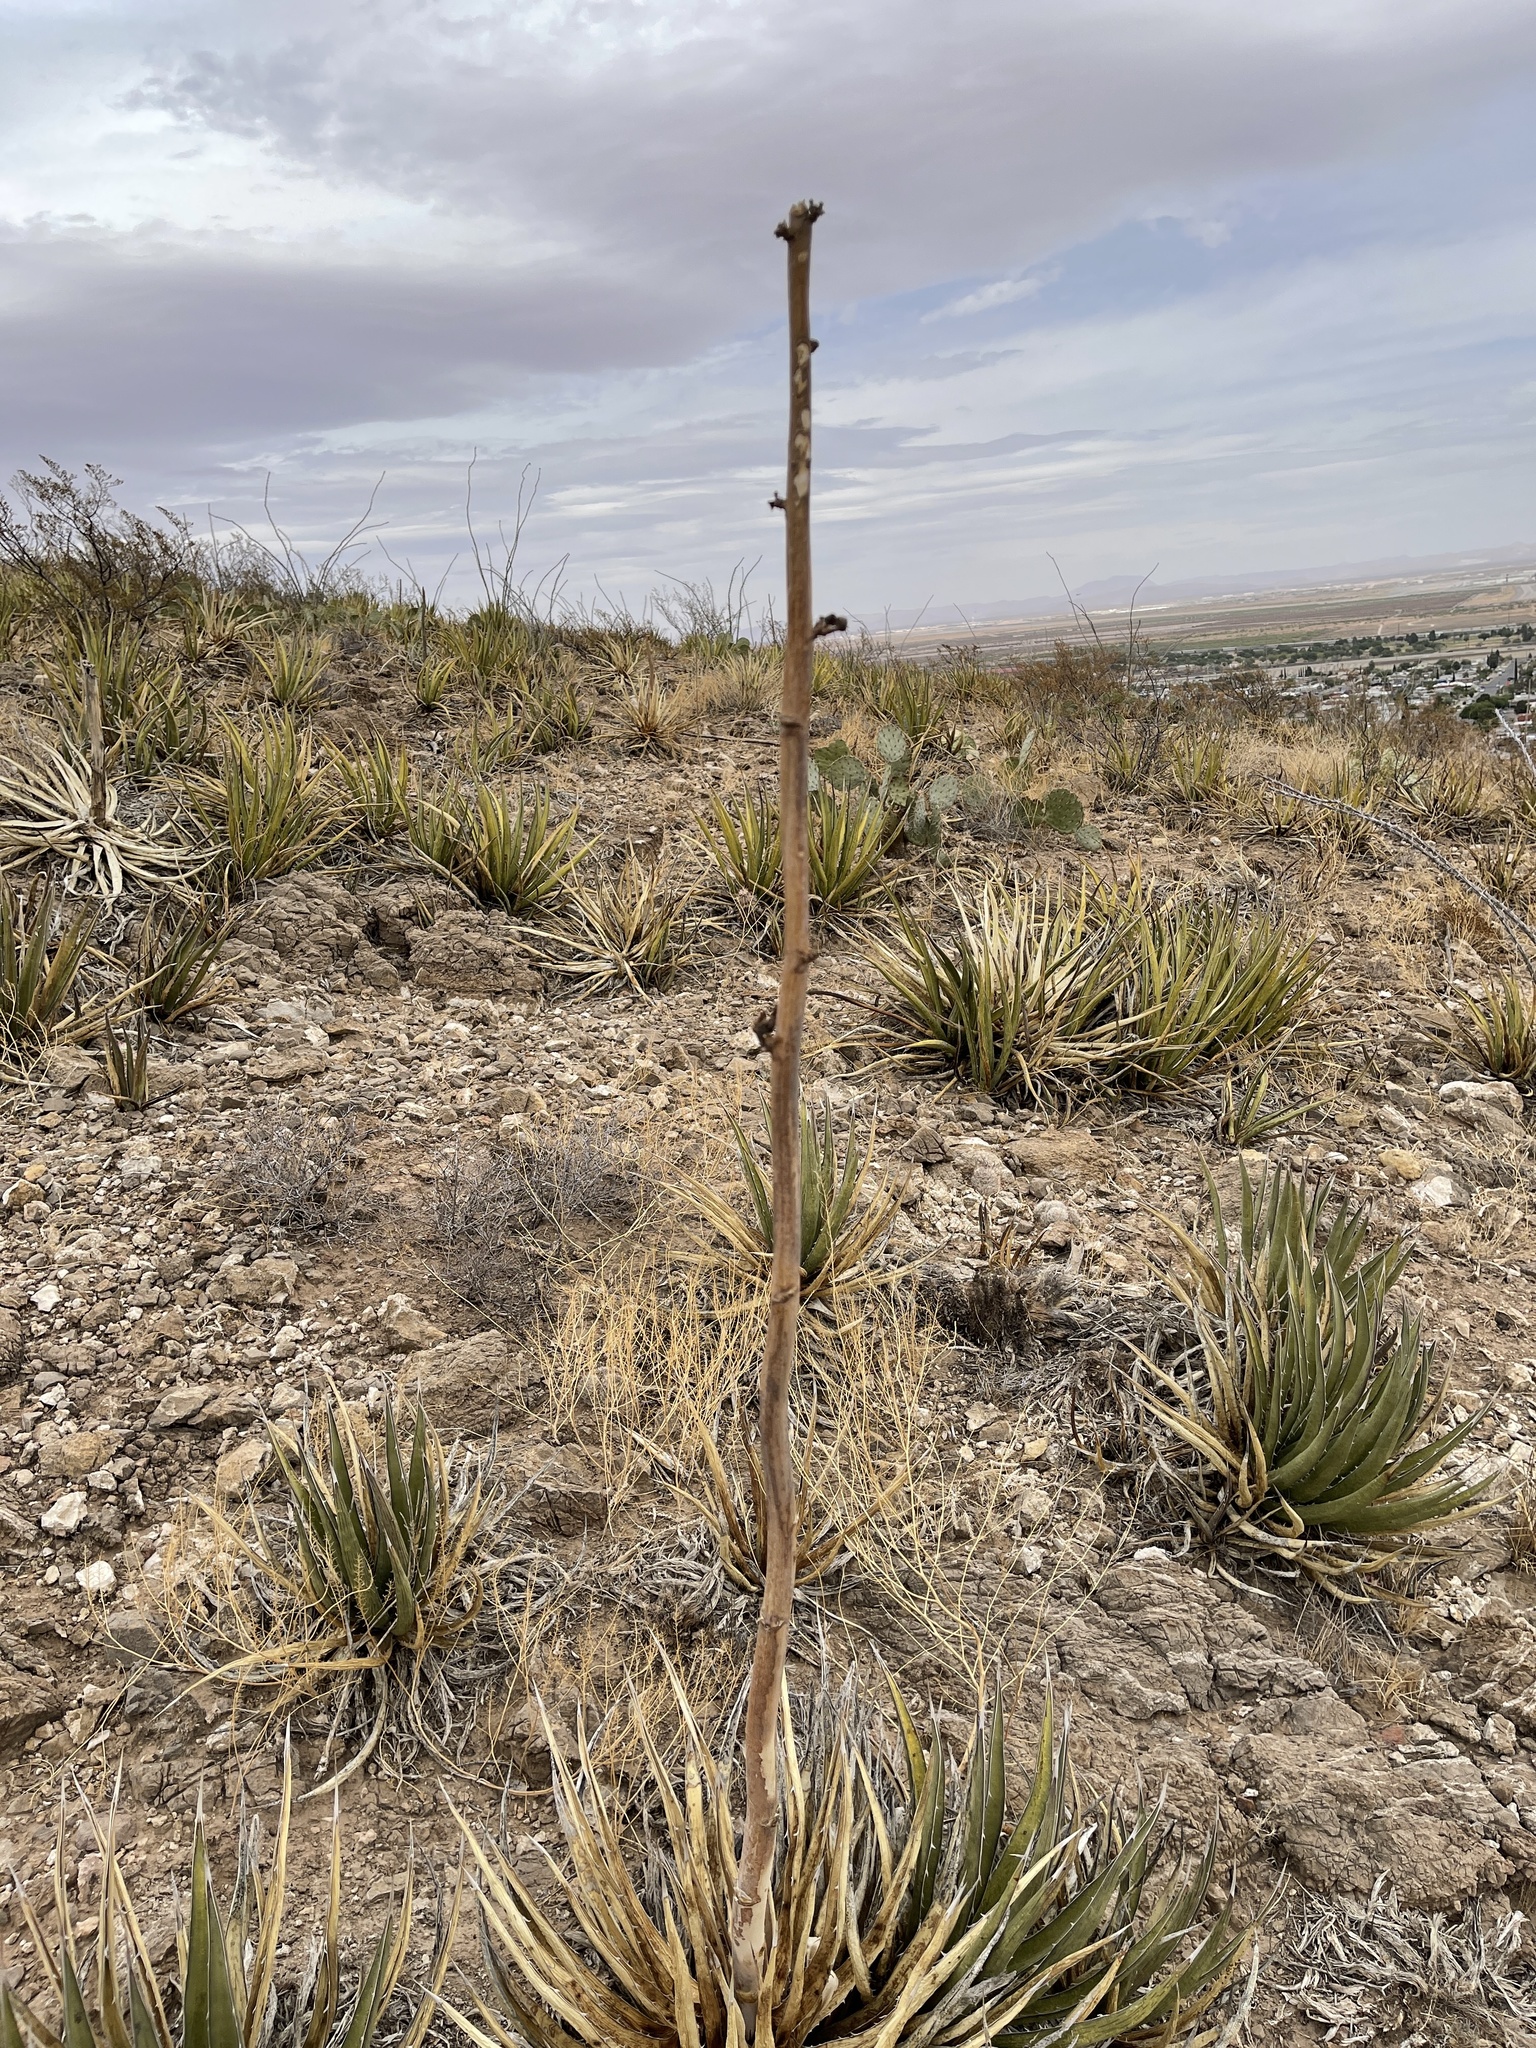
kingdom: Plantae
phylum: Tracheophyta
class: Liliopsida
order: Asparagales
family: Asparagaceae
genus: Agave
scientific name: Agave lechuguilla
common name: Lecheguilla agave
